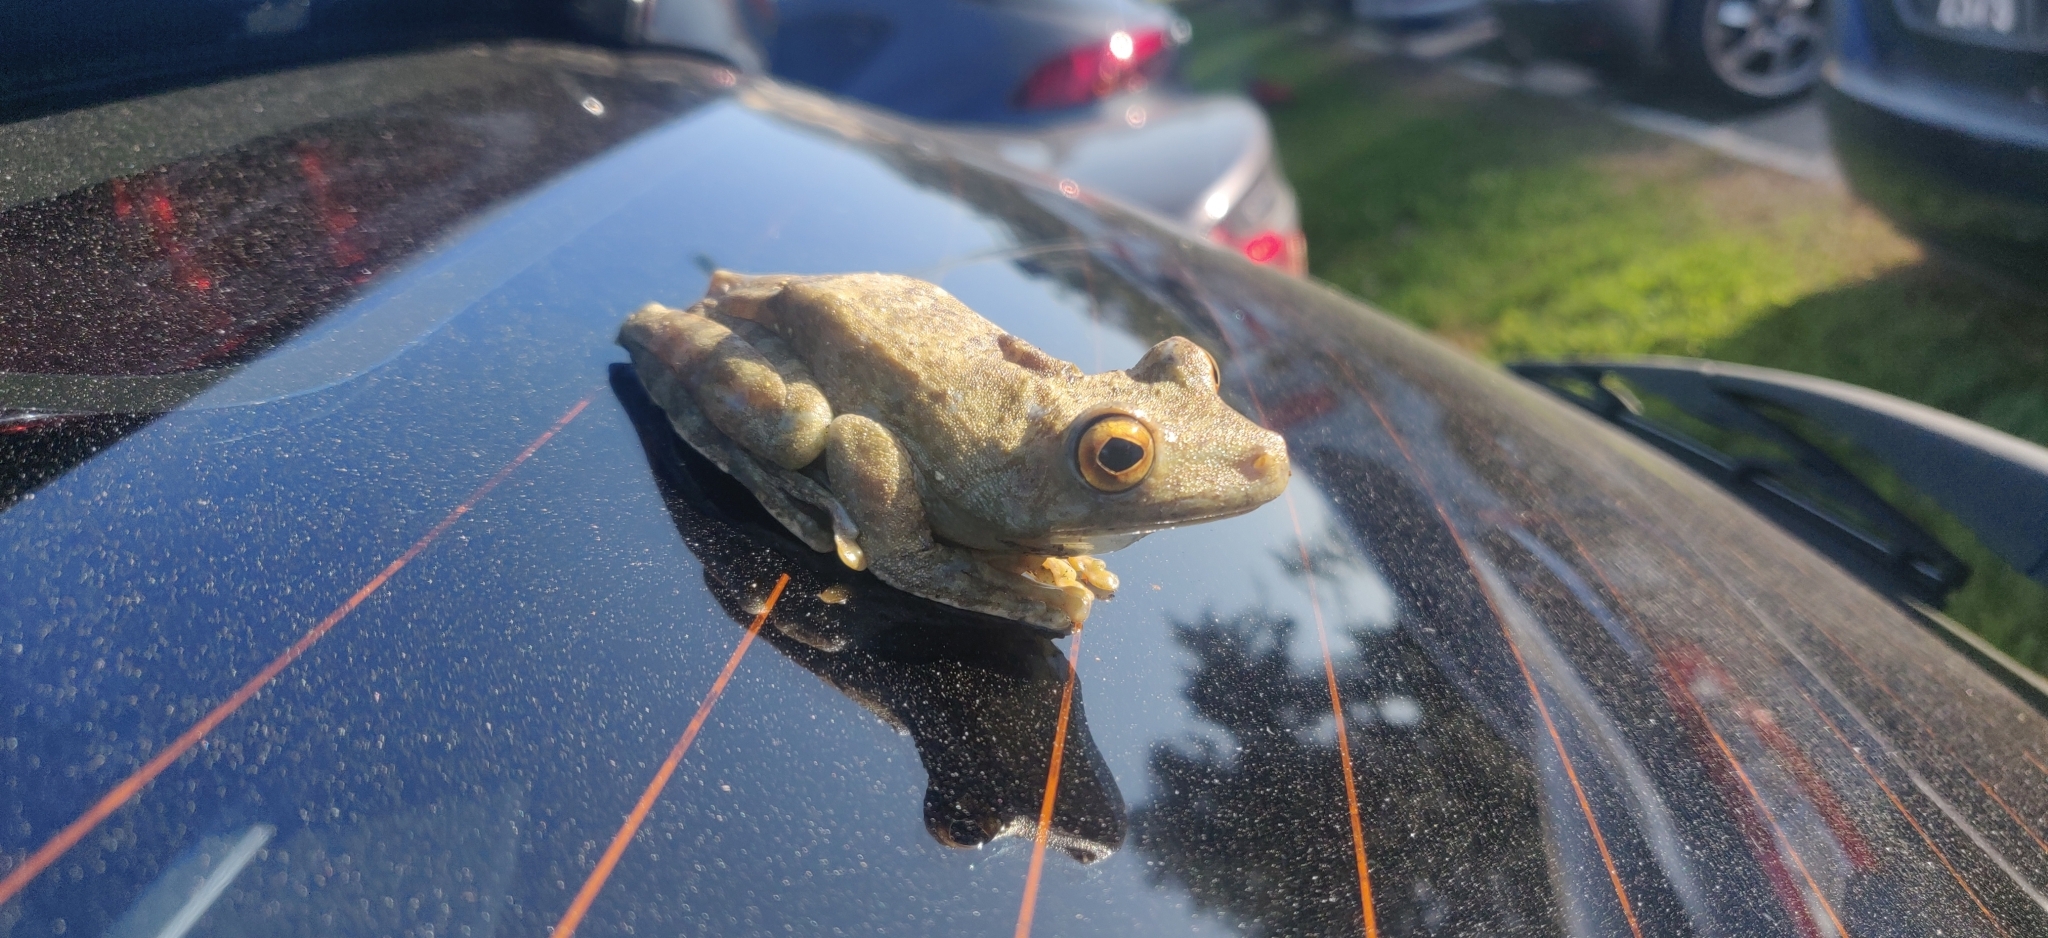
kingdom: Animalia
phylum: Chordata
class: Amphibia
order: Anura
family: Hylidae
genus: Boana
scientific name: Boana boans
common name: Giant gladiator treefrog
